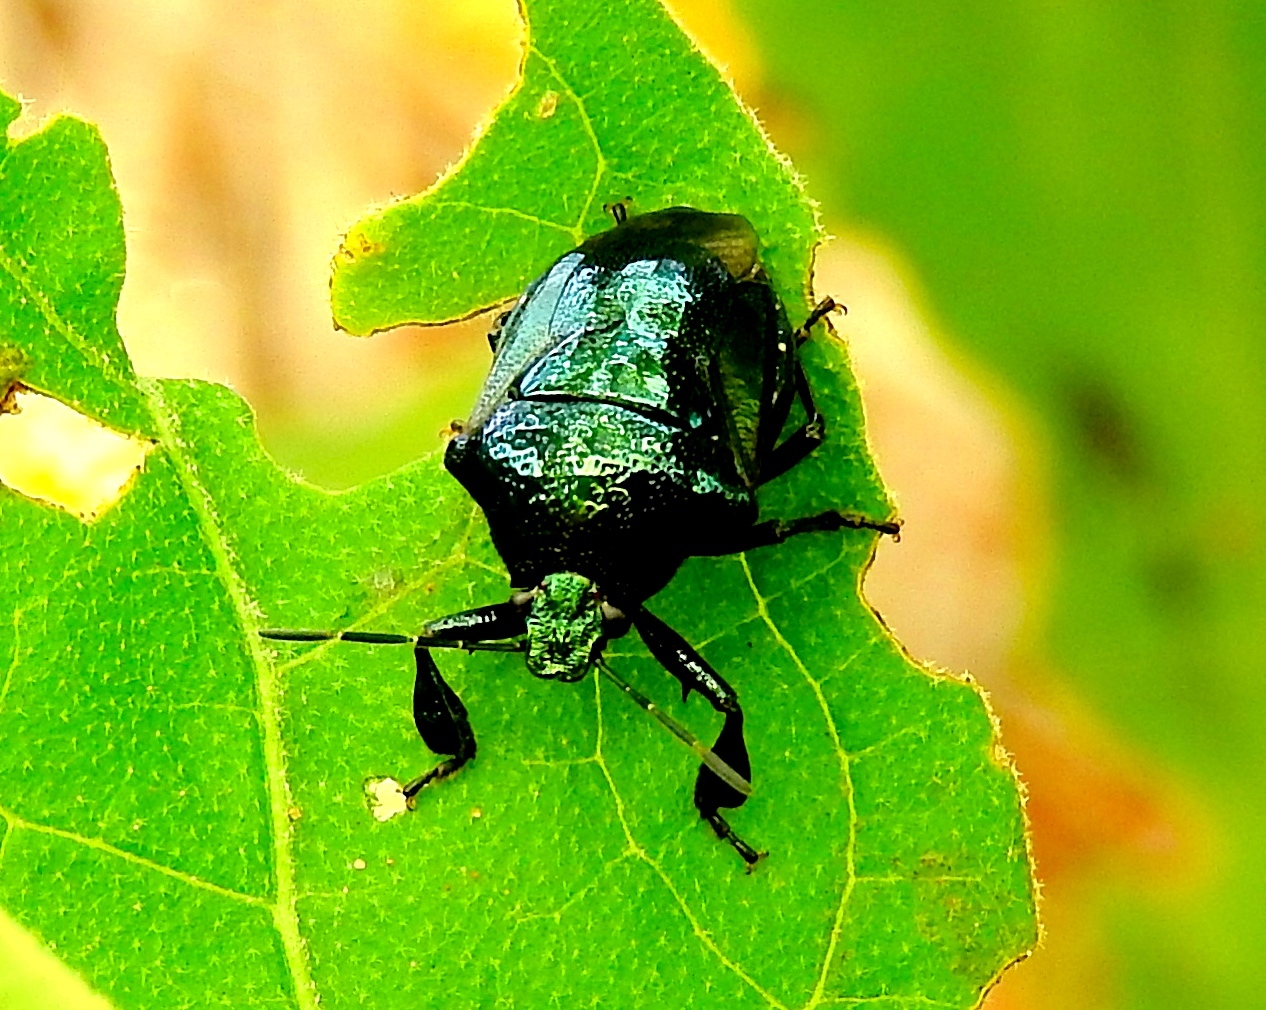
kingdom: Animalia
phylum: Arthropoda
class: Insecta
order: Hemiptera
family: Pentatomidae
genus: Stiretrus
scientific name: Stiretrus anchorago
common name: Anchor stink bug
